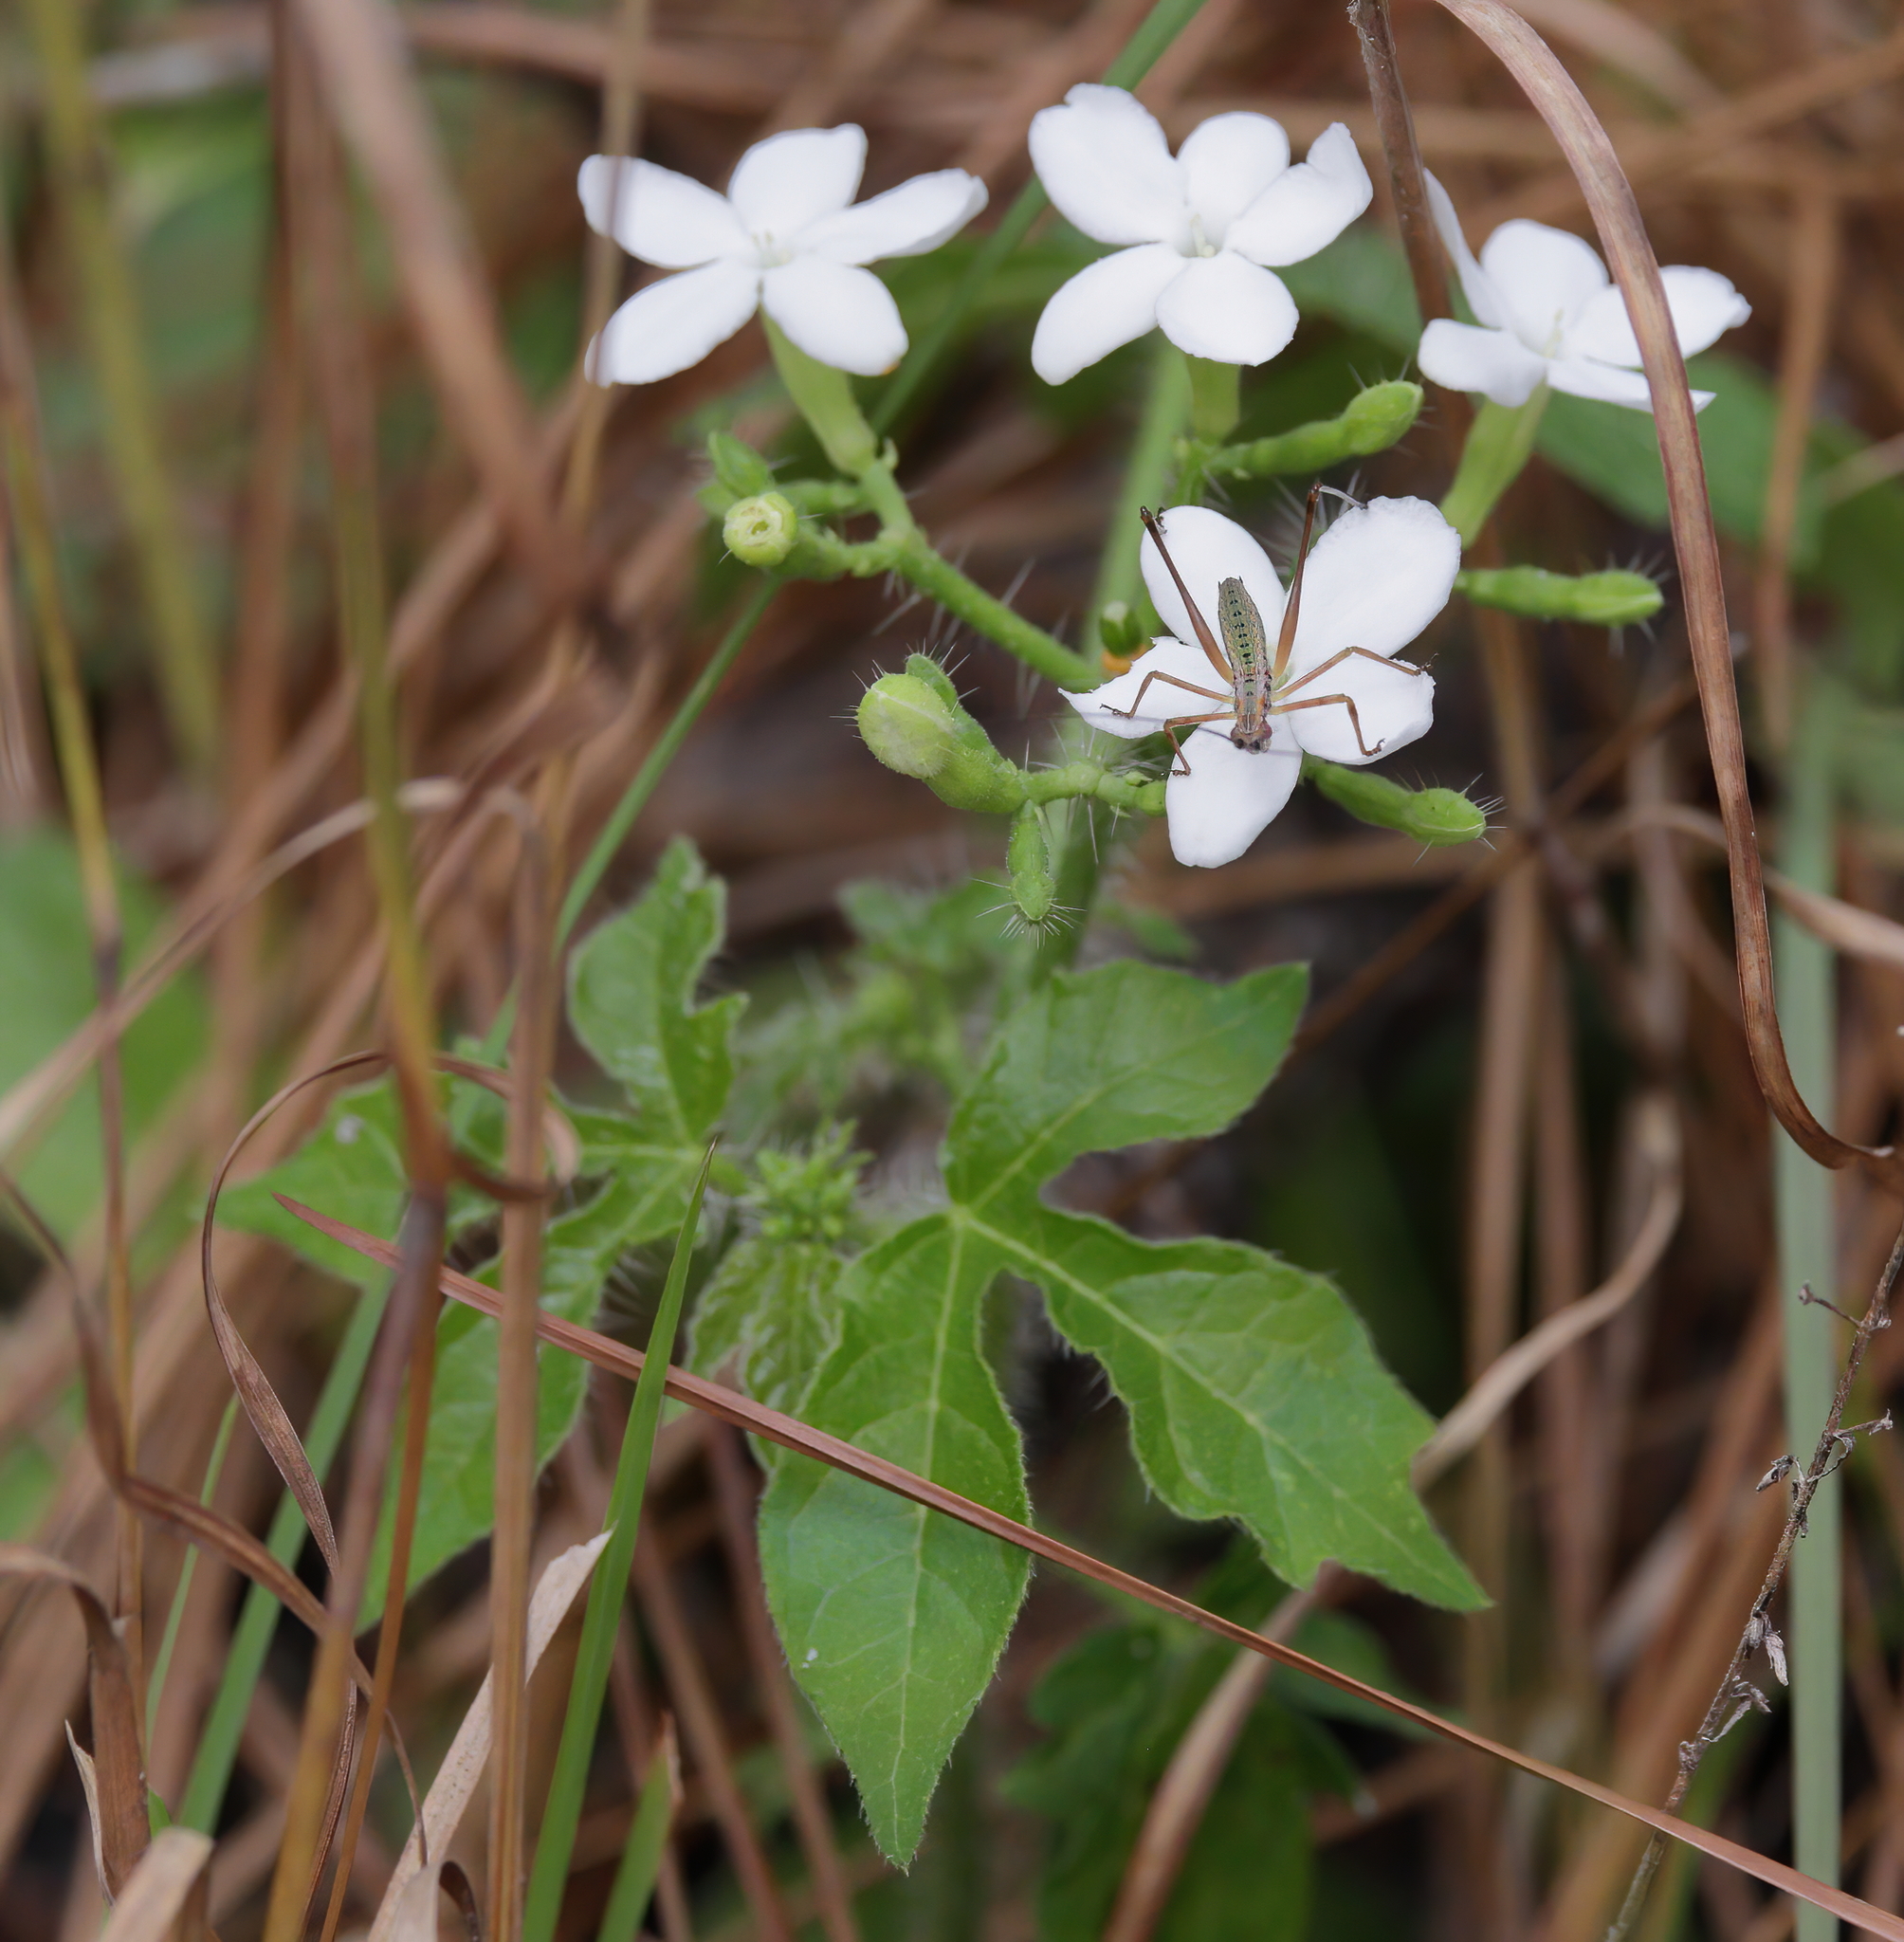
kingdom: Plantae
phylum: Tracheophyta
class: Magnoliopsida
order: Malpighiales
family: Euphorbiaceae
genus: Cnidoscolus
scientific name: Cnidoscolus stimulosus
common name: Bull-nettle
